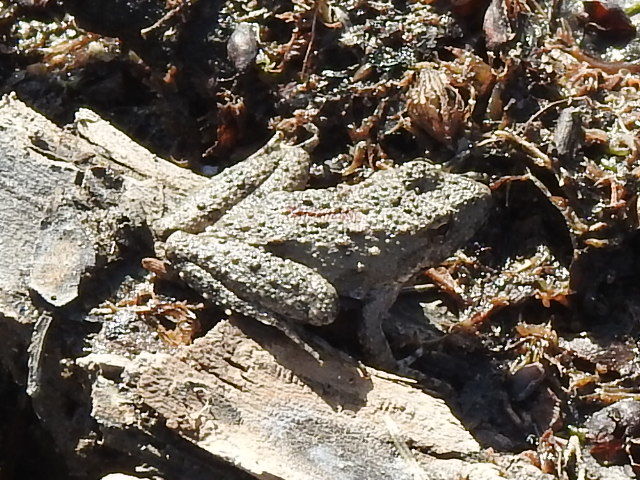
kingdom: Animalia
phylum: Chordata
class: Amphibia
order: Anura
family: Hylidae
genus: Acris
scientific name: Acris blanchardi
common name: Blanchard's cricket frog
